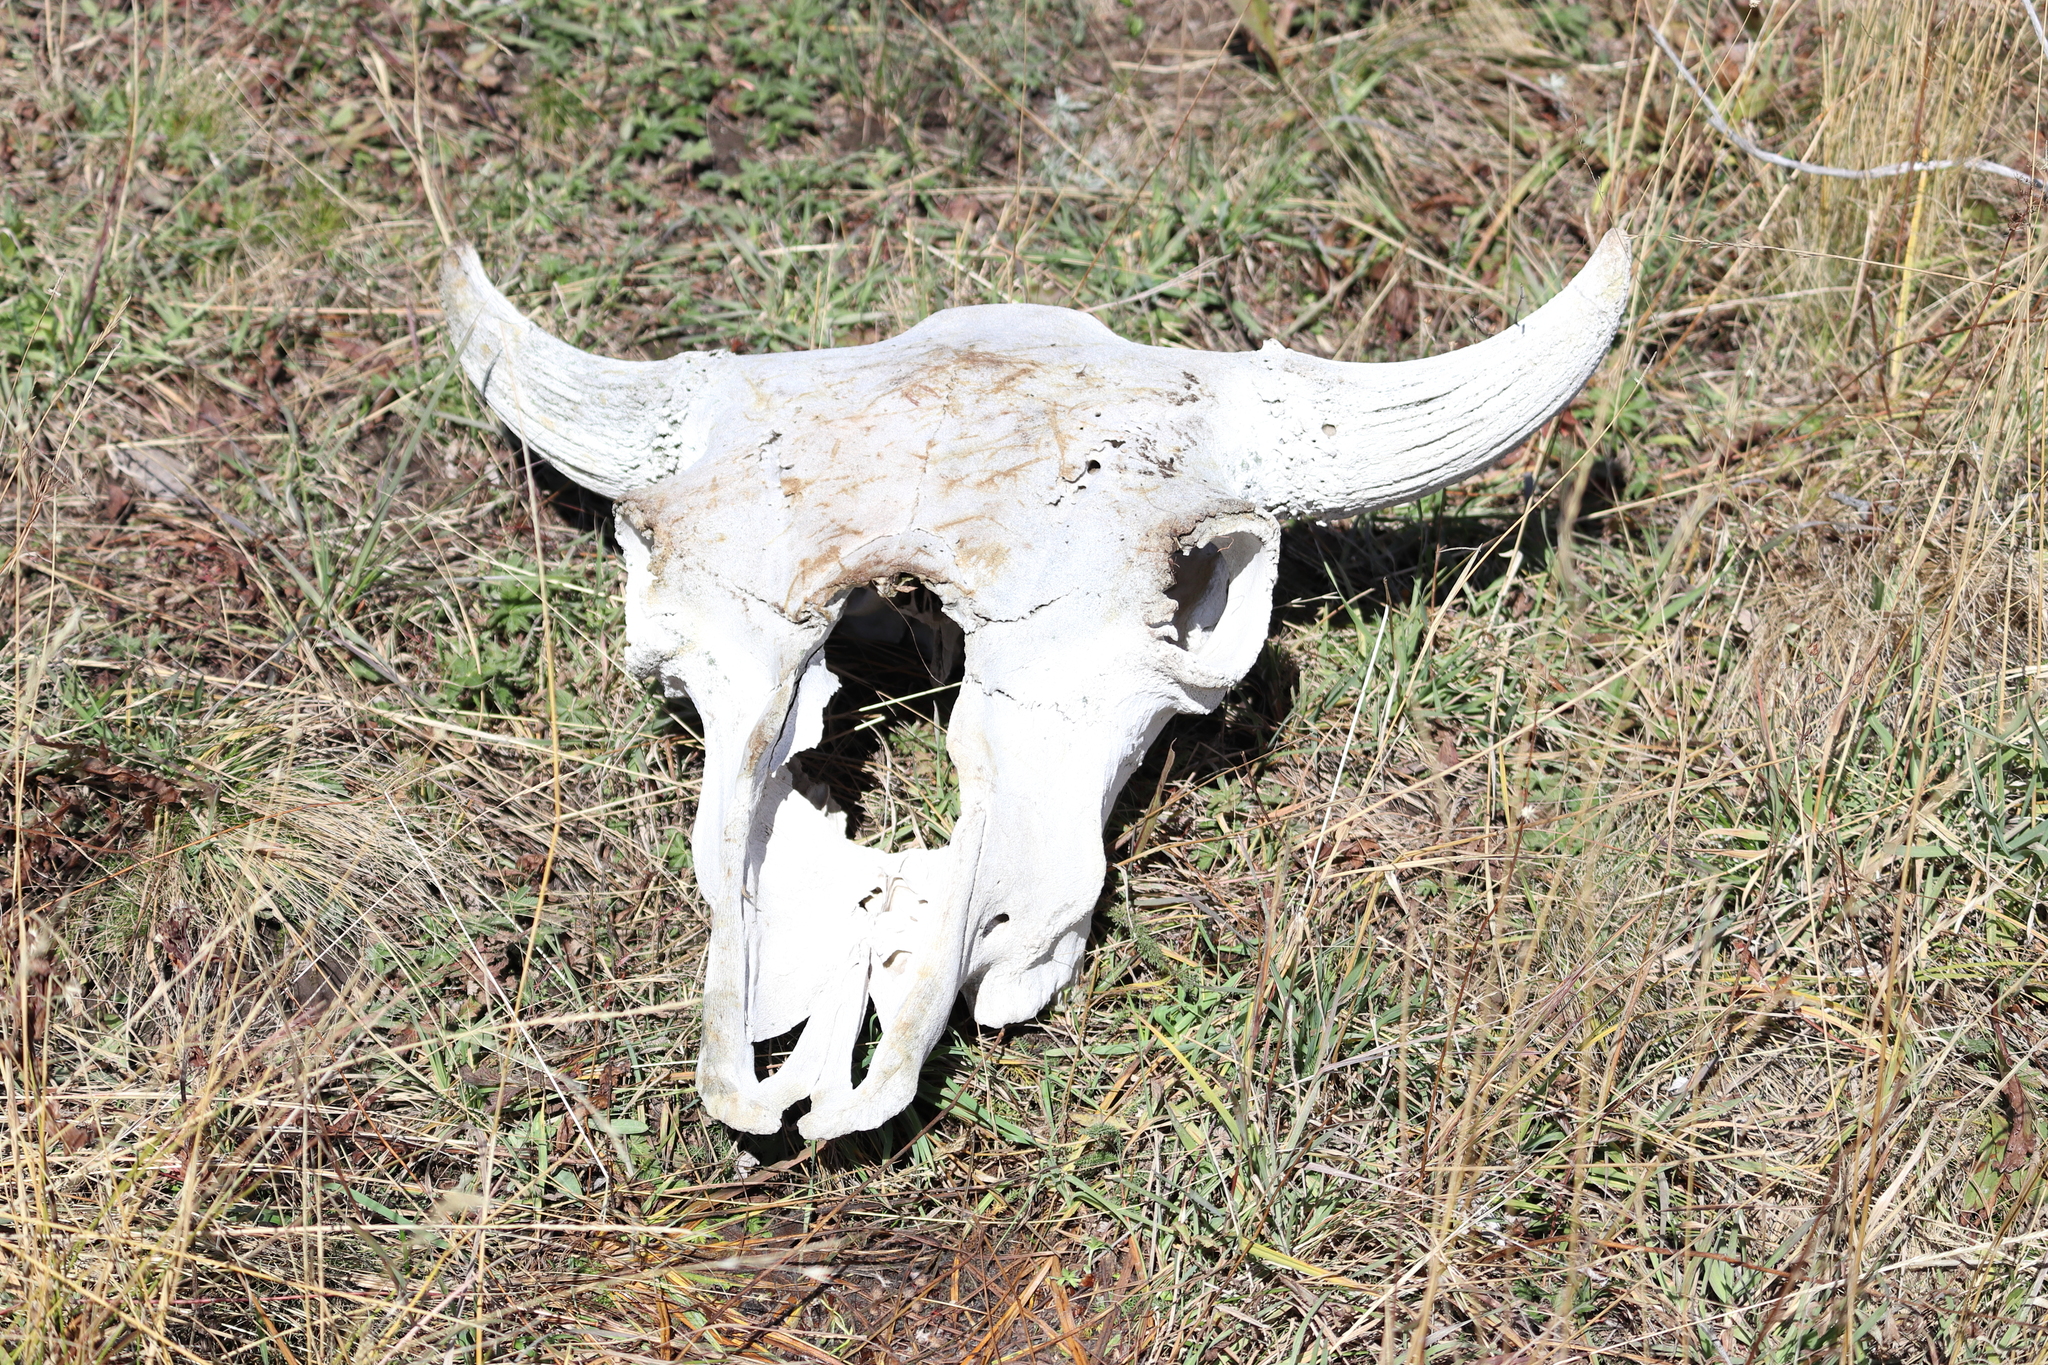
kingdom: Animalia
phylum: Chordata
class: Mammalia
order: Artiodactyla
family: Bovidae
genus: Bison
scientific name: Bison bison
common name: American bison
